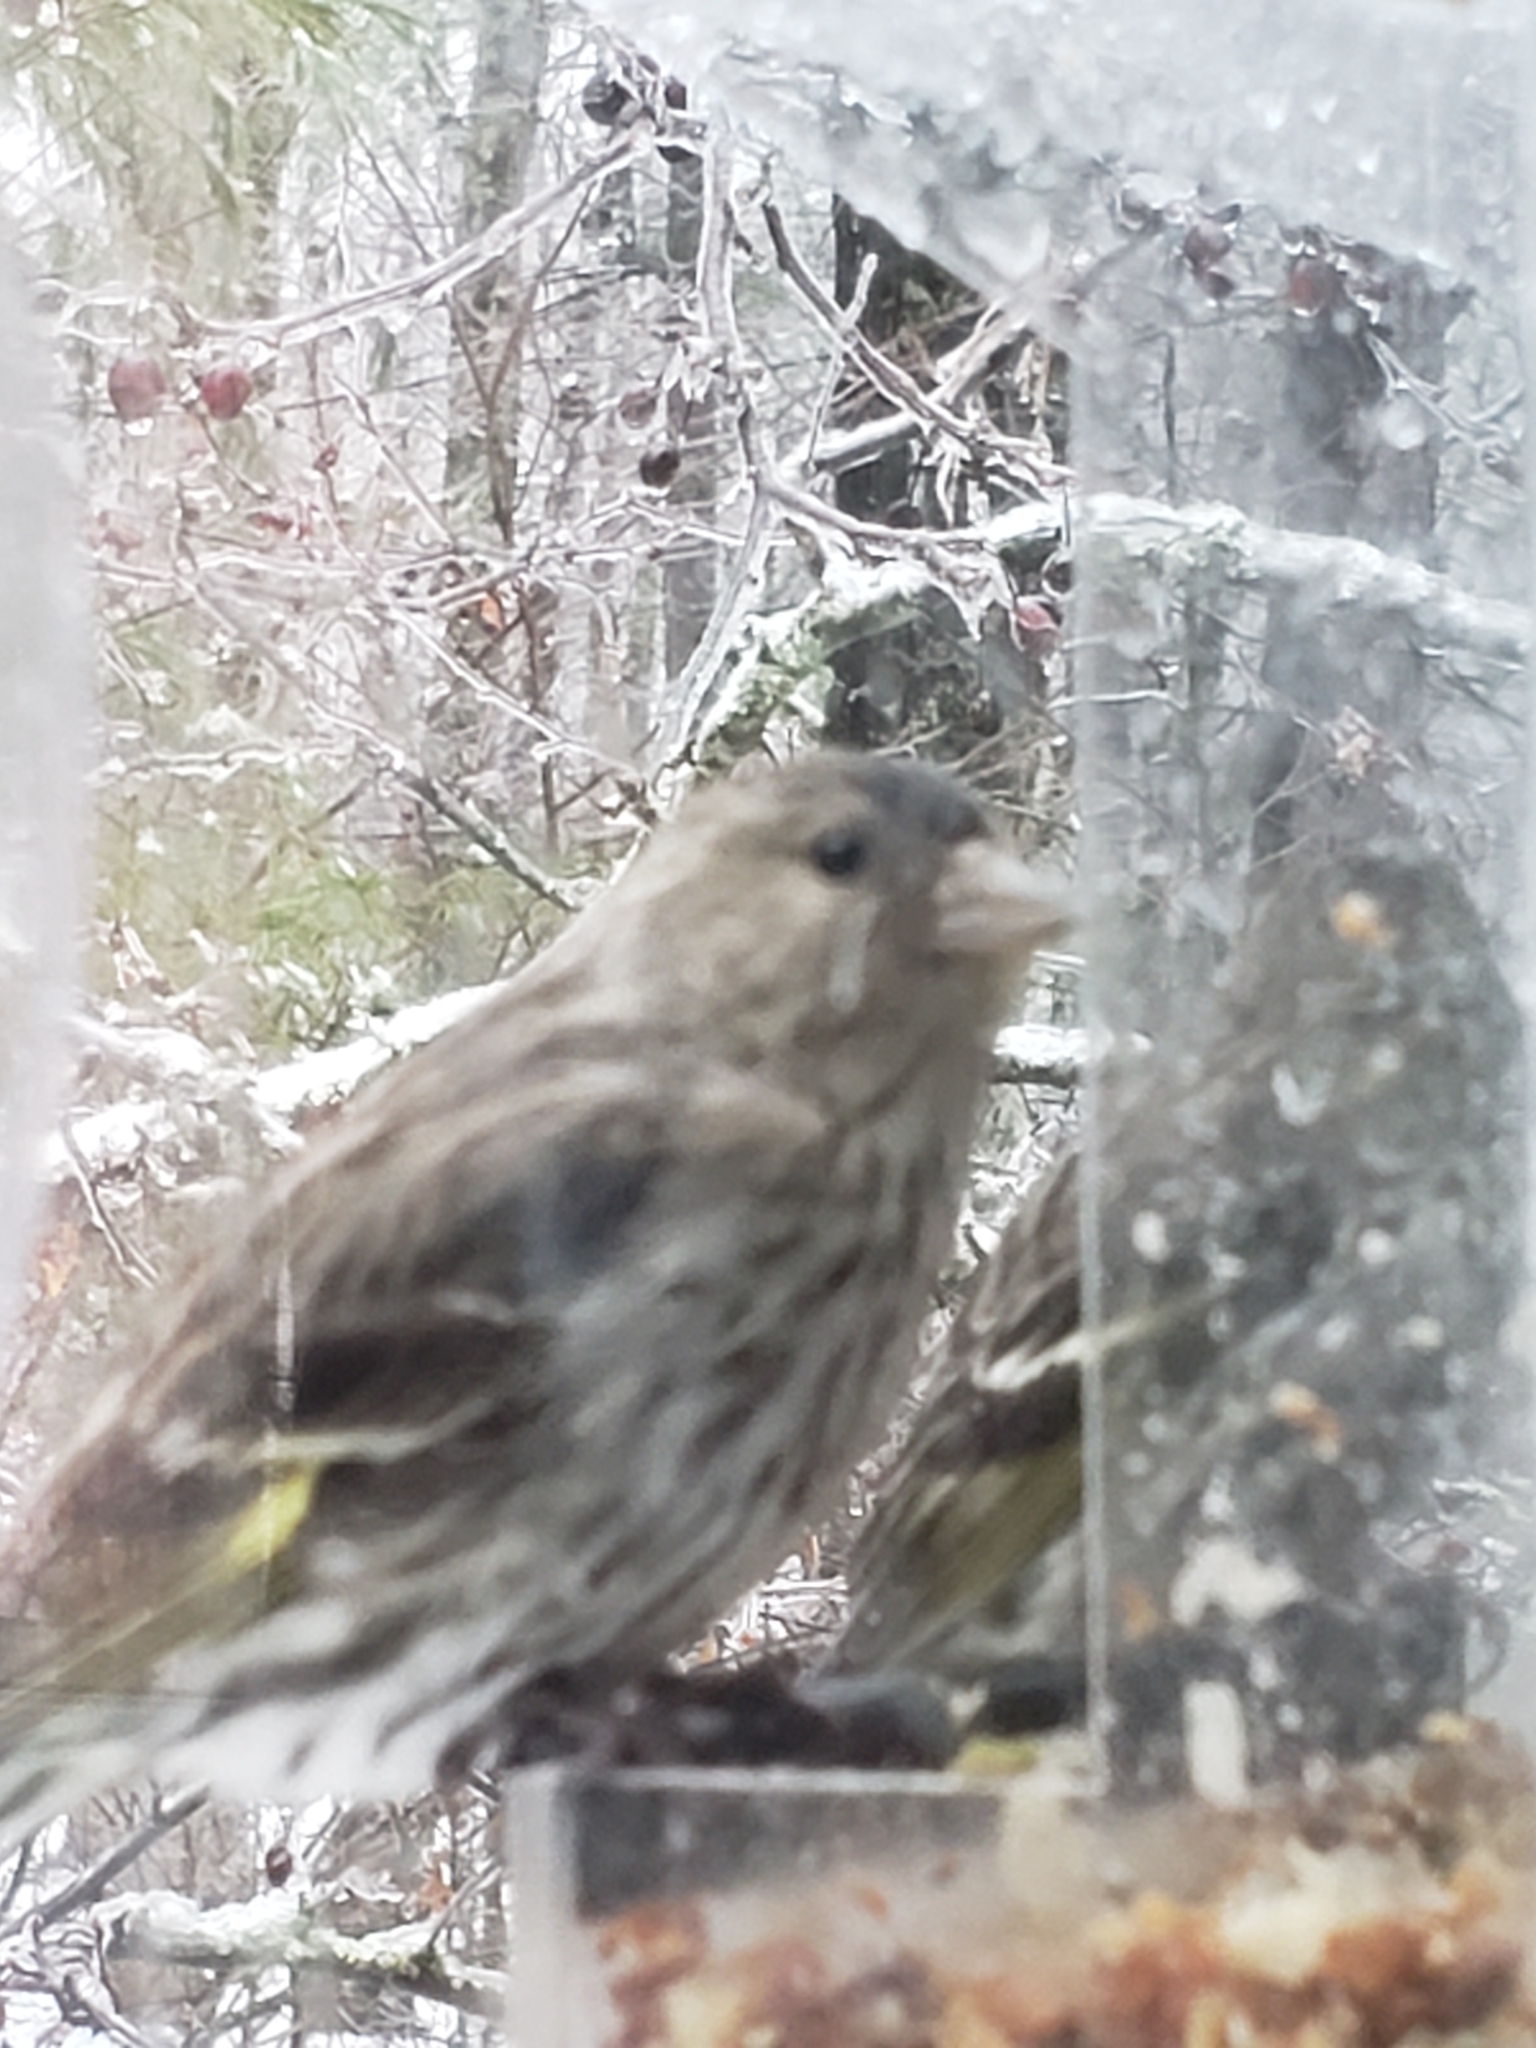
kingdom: Animalia
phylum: Chordata
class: Aves
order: Passeriformes
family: Fringillidae
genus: Spinus
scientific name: Spinus pinus
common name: Pine siskin
